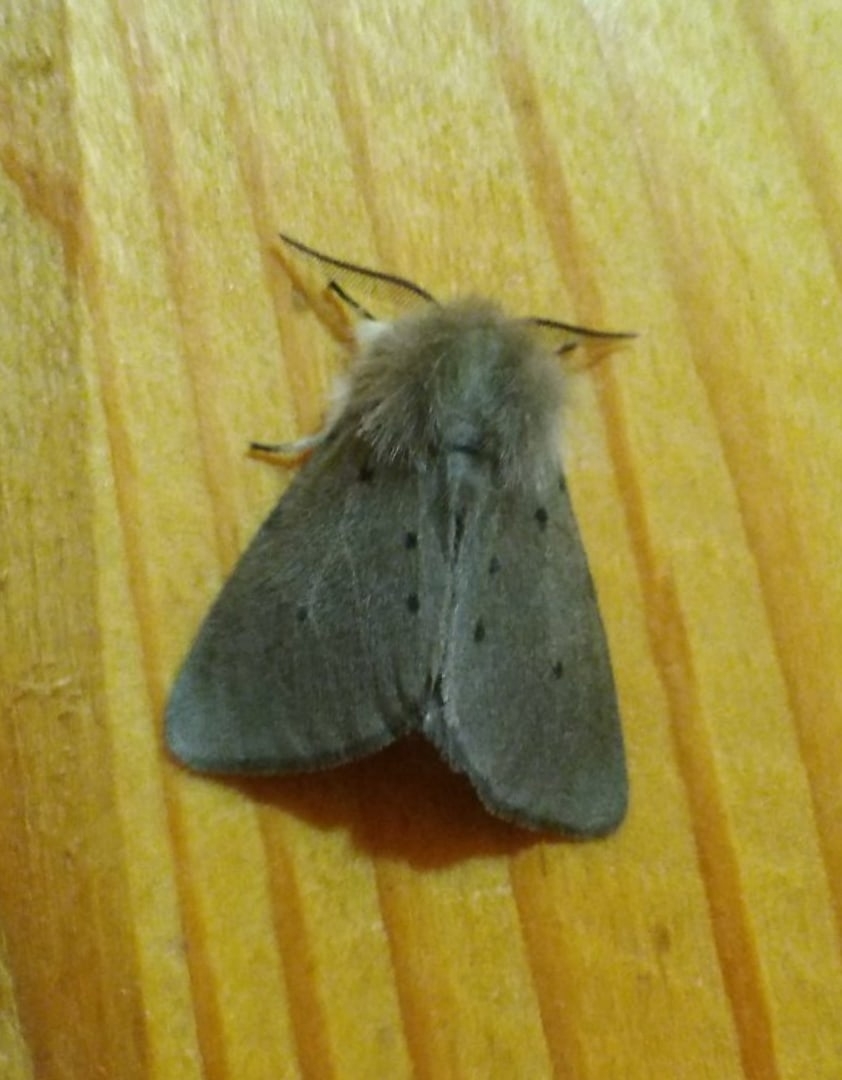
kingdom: Animalia
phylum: Arthropoda
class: Insecta
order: Lepidoptera
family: Erebidae
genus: Diaphora
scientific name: Diaphora mendica
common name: Muslin moth
